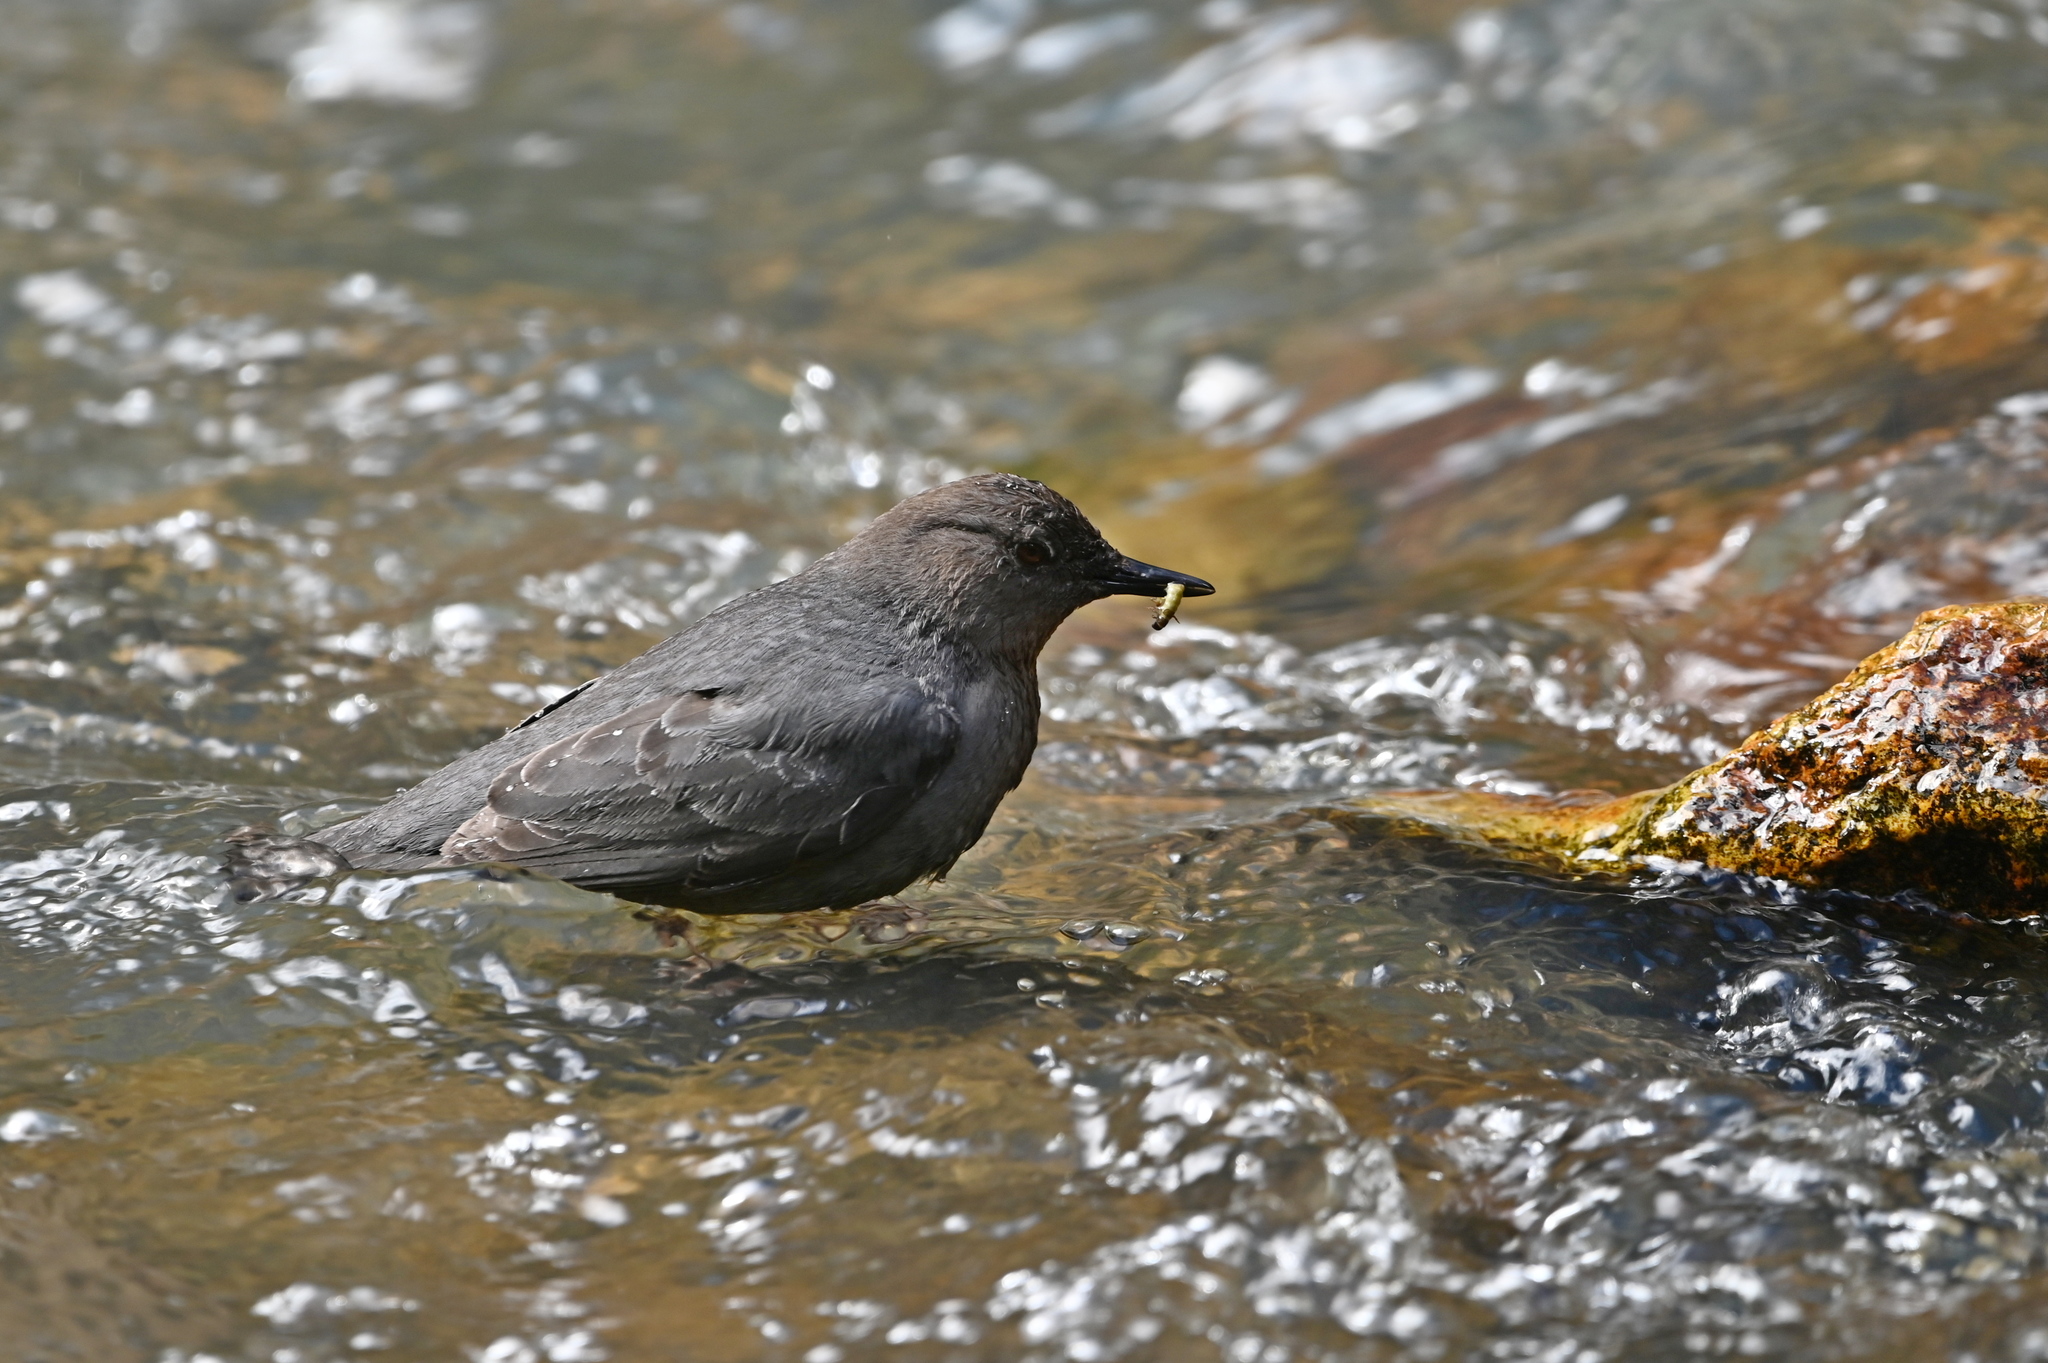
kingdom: Animalia
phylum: Chordata
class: Aves
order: Passeriformes
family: Cinclidae
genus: Cinclus
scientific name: Cinclus mexicanus
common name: American dipper
